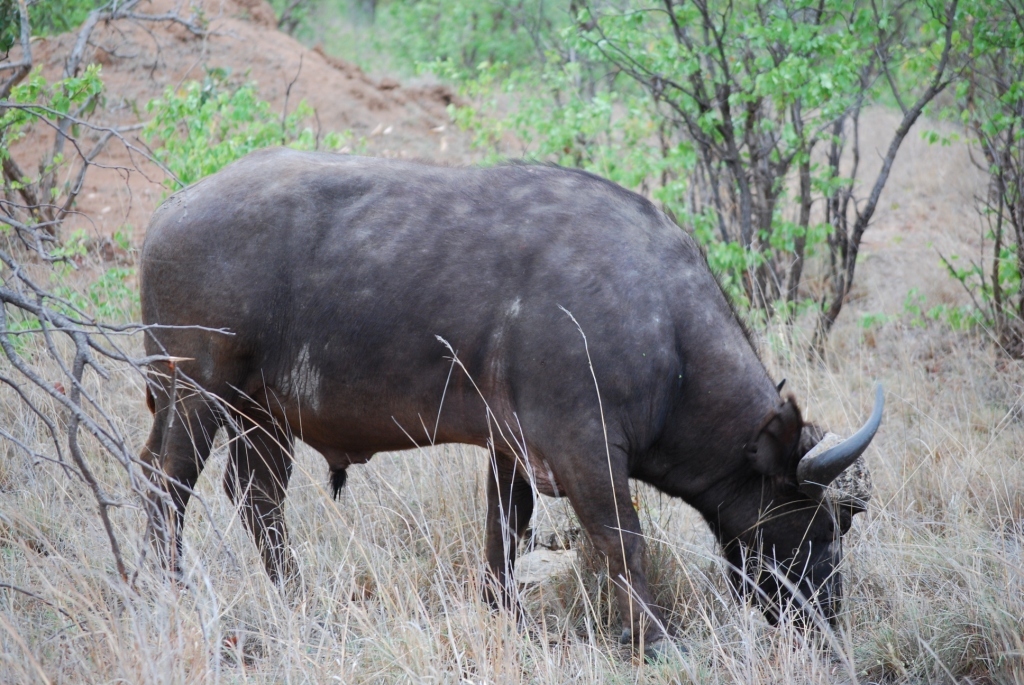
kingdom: Animalia
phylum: Chordata
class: Mammalia
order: Artiodactyla
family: Bovidae
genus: Syncerus
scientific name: Syncerus caffer
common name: African buffalo
